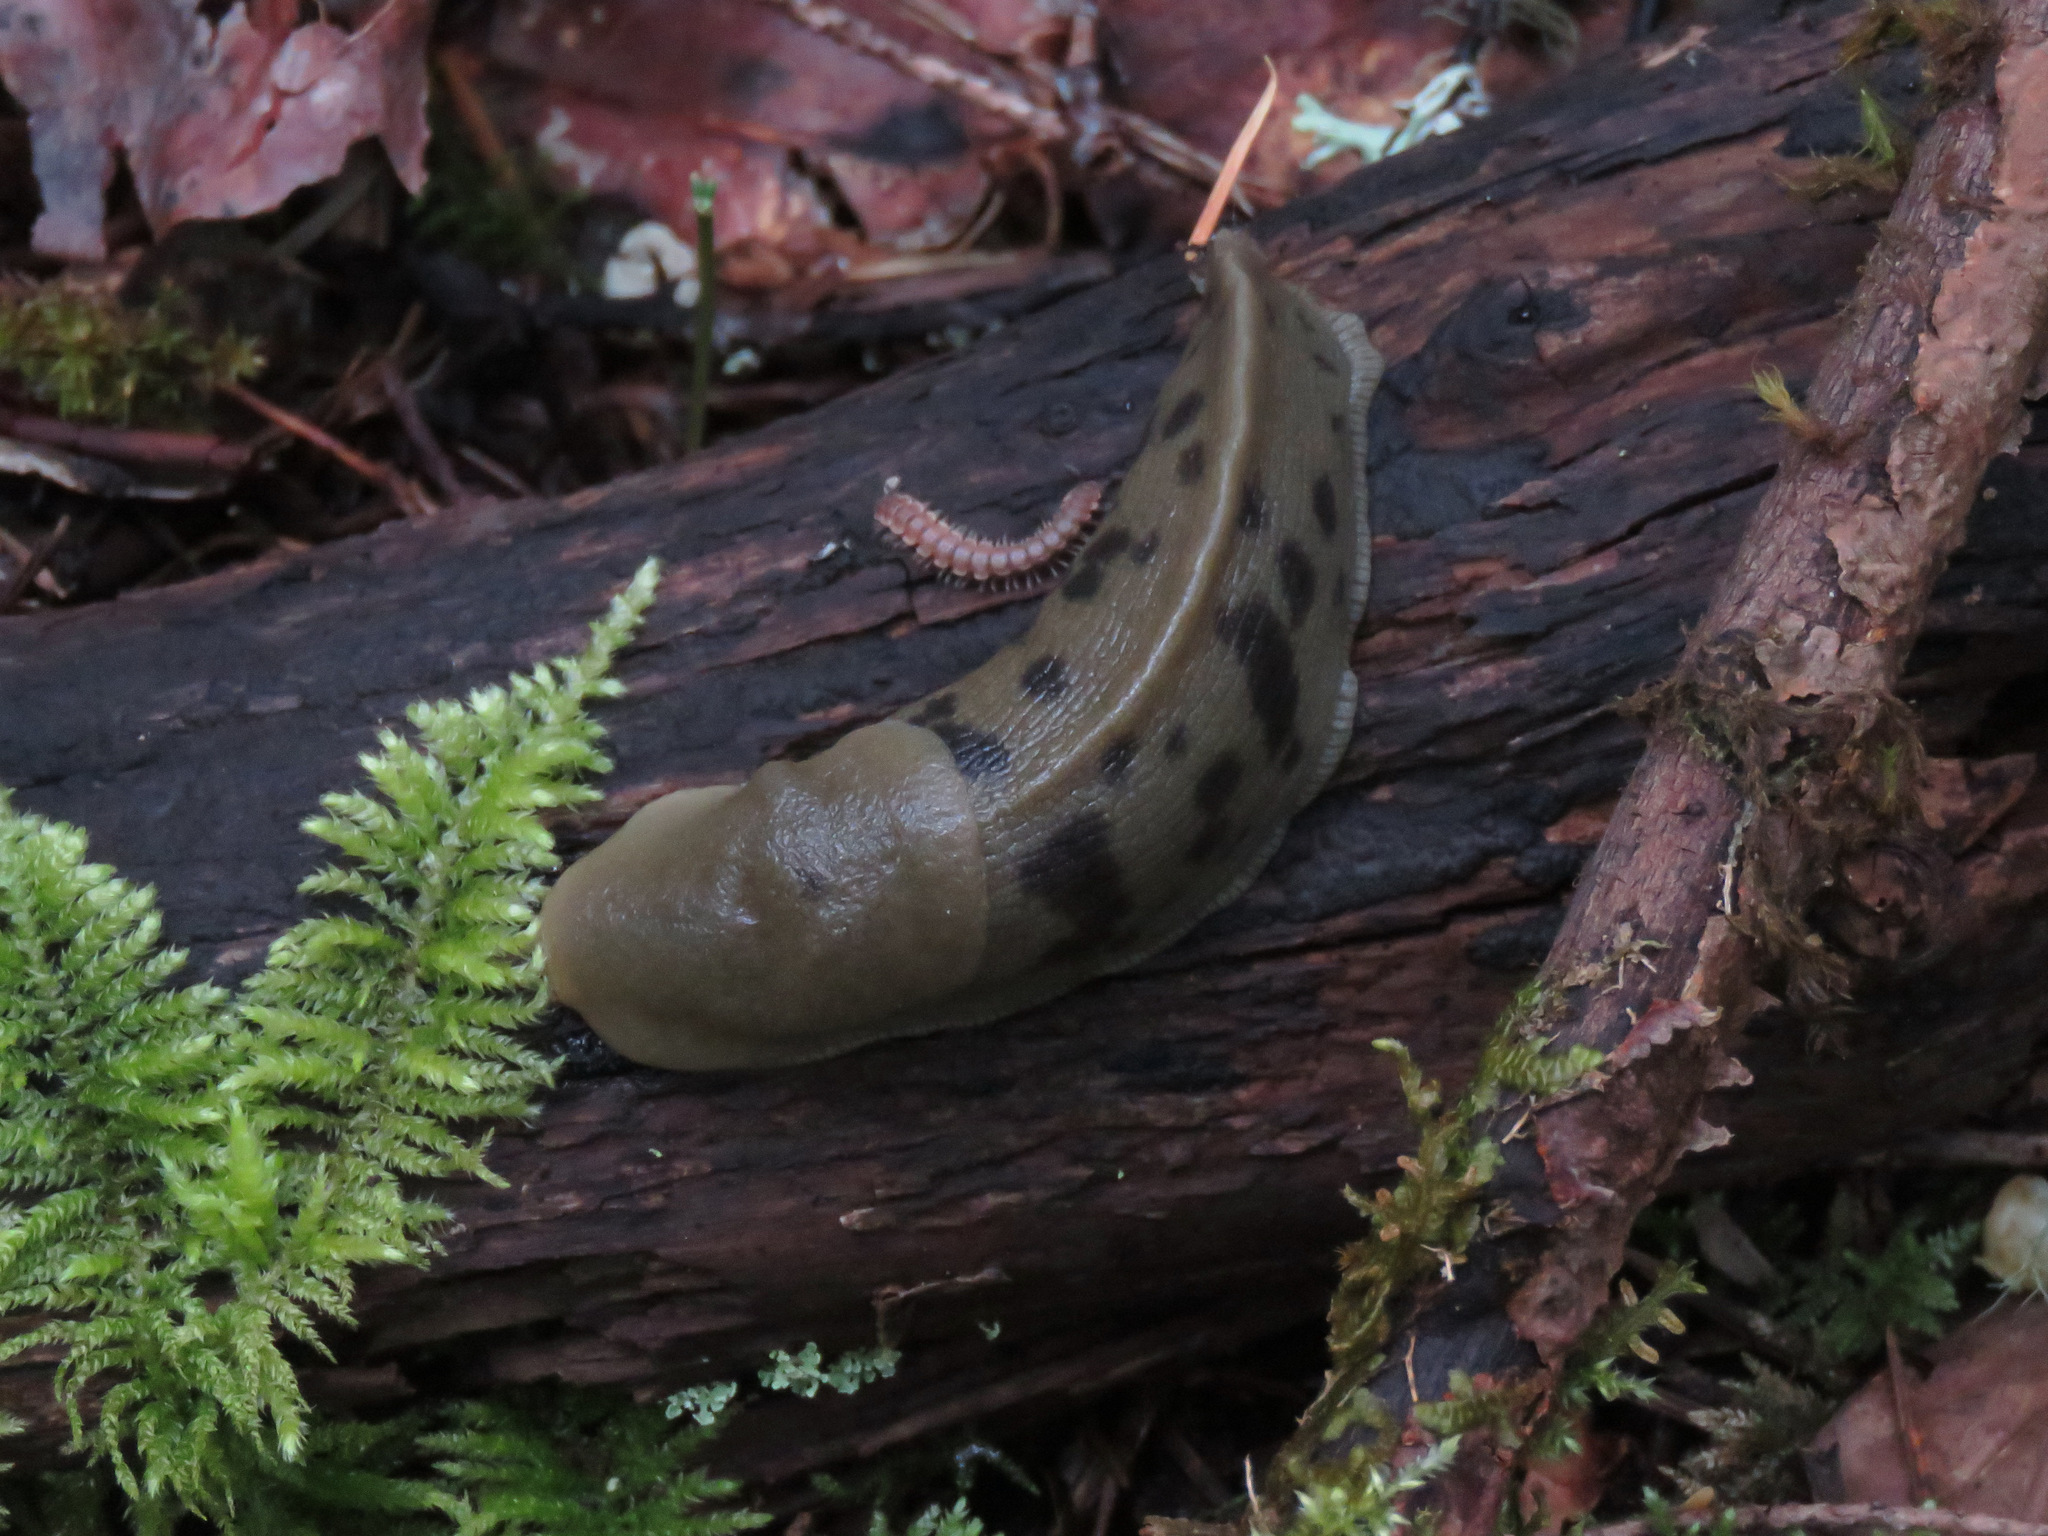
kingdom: Animalia
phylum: Mollusca
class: Gastropoda
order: Stylommatophora
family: Ariolimacidae
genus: Ariolimax
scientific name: Ariolimax columbianus
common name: Pacific banana slug
